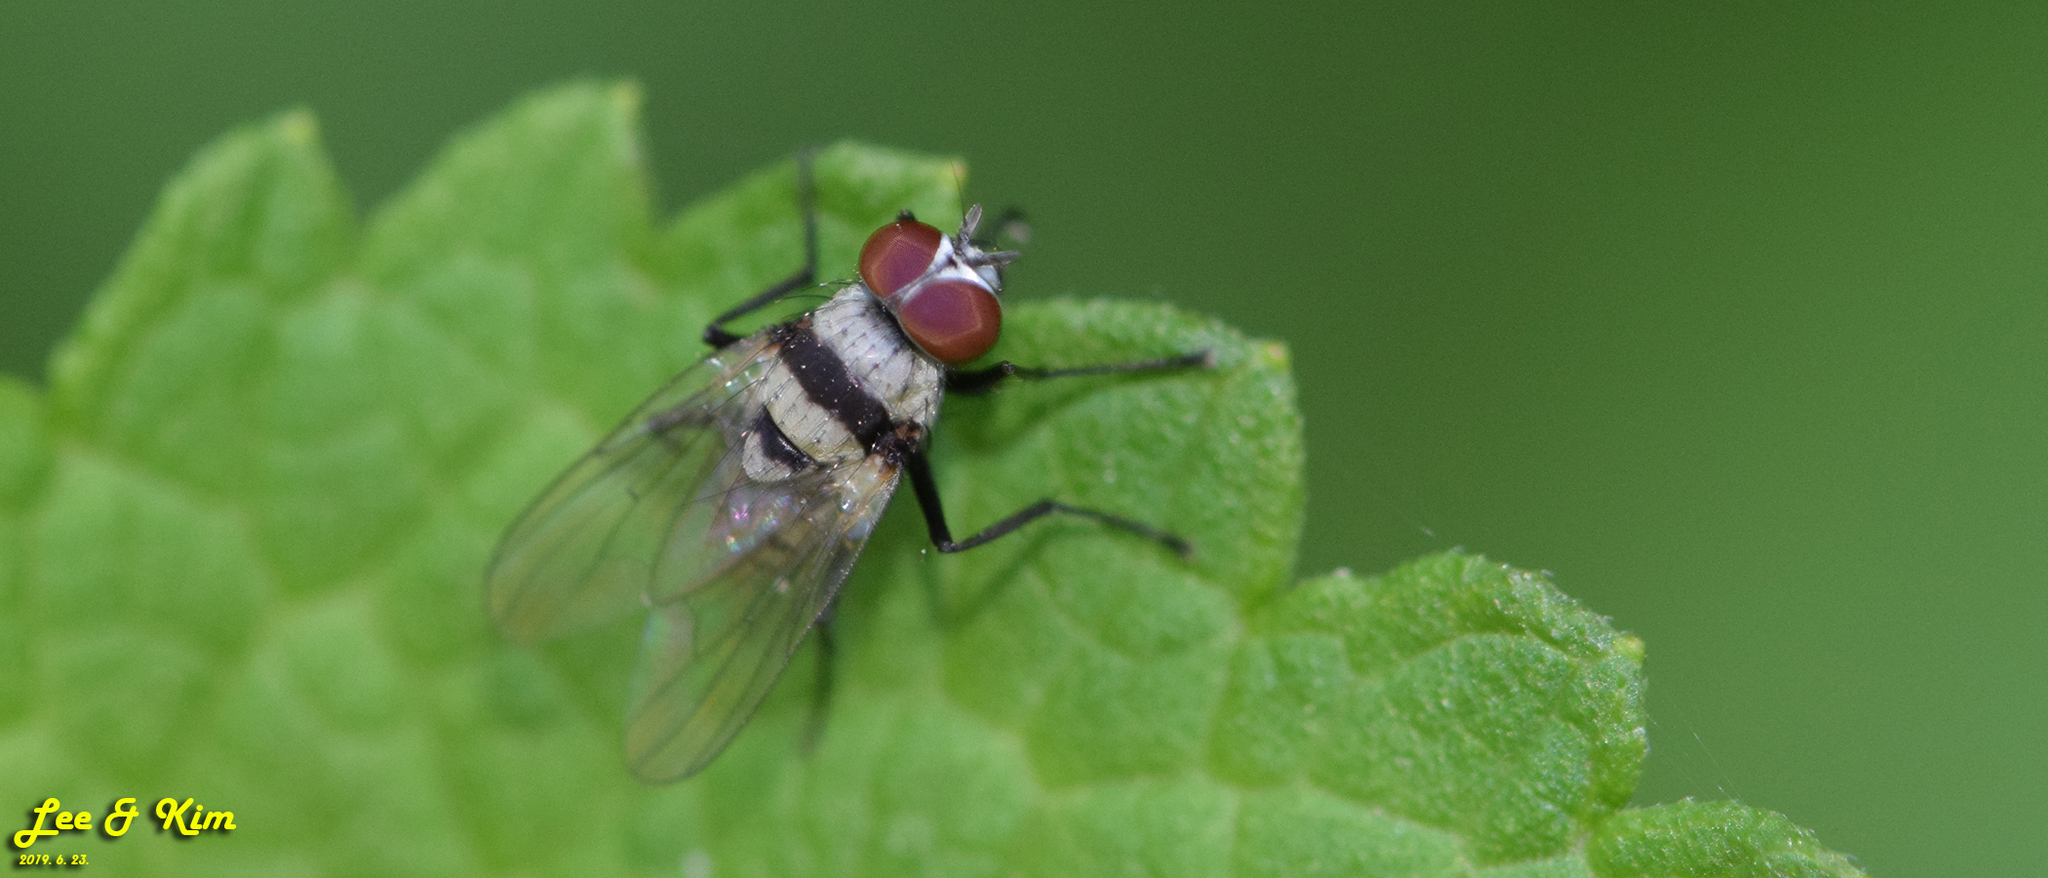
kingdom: Animalia
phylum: Arthropoda
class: Insecta
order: Diptera
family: Anthomyiidae
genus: Anthomyia
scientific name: Anthomyia illocata
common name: Fly
